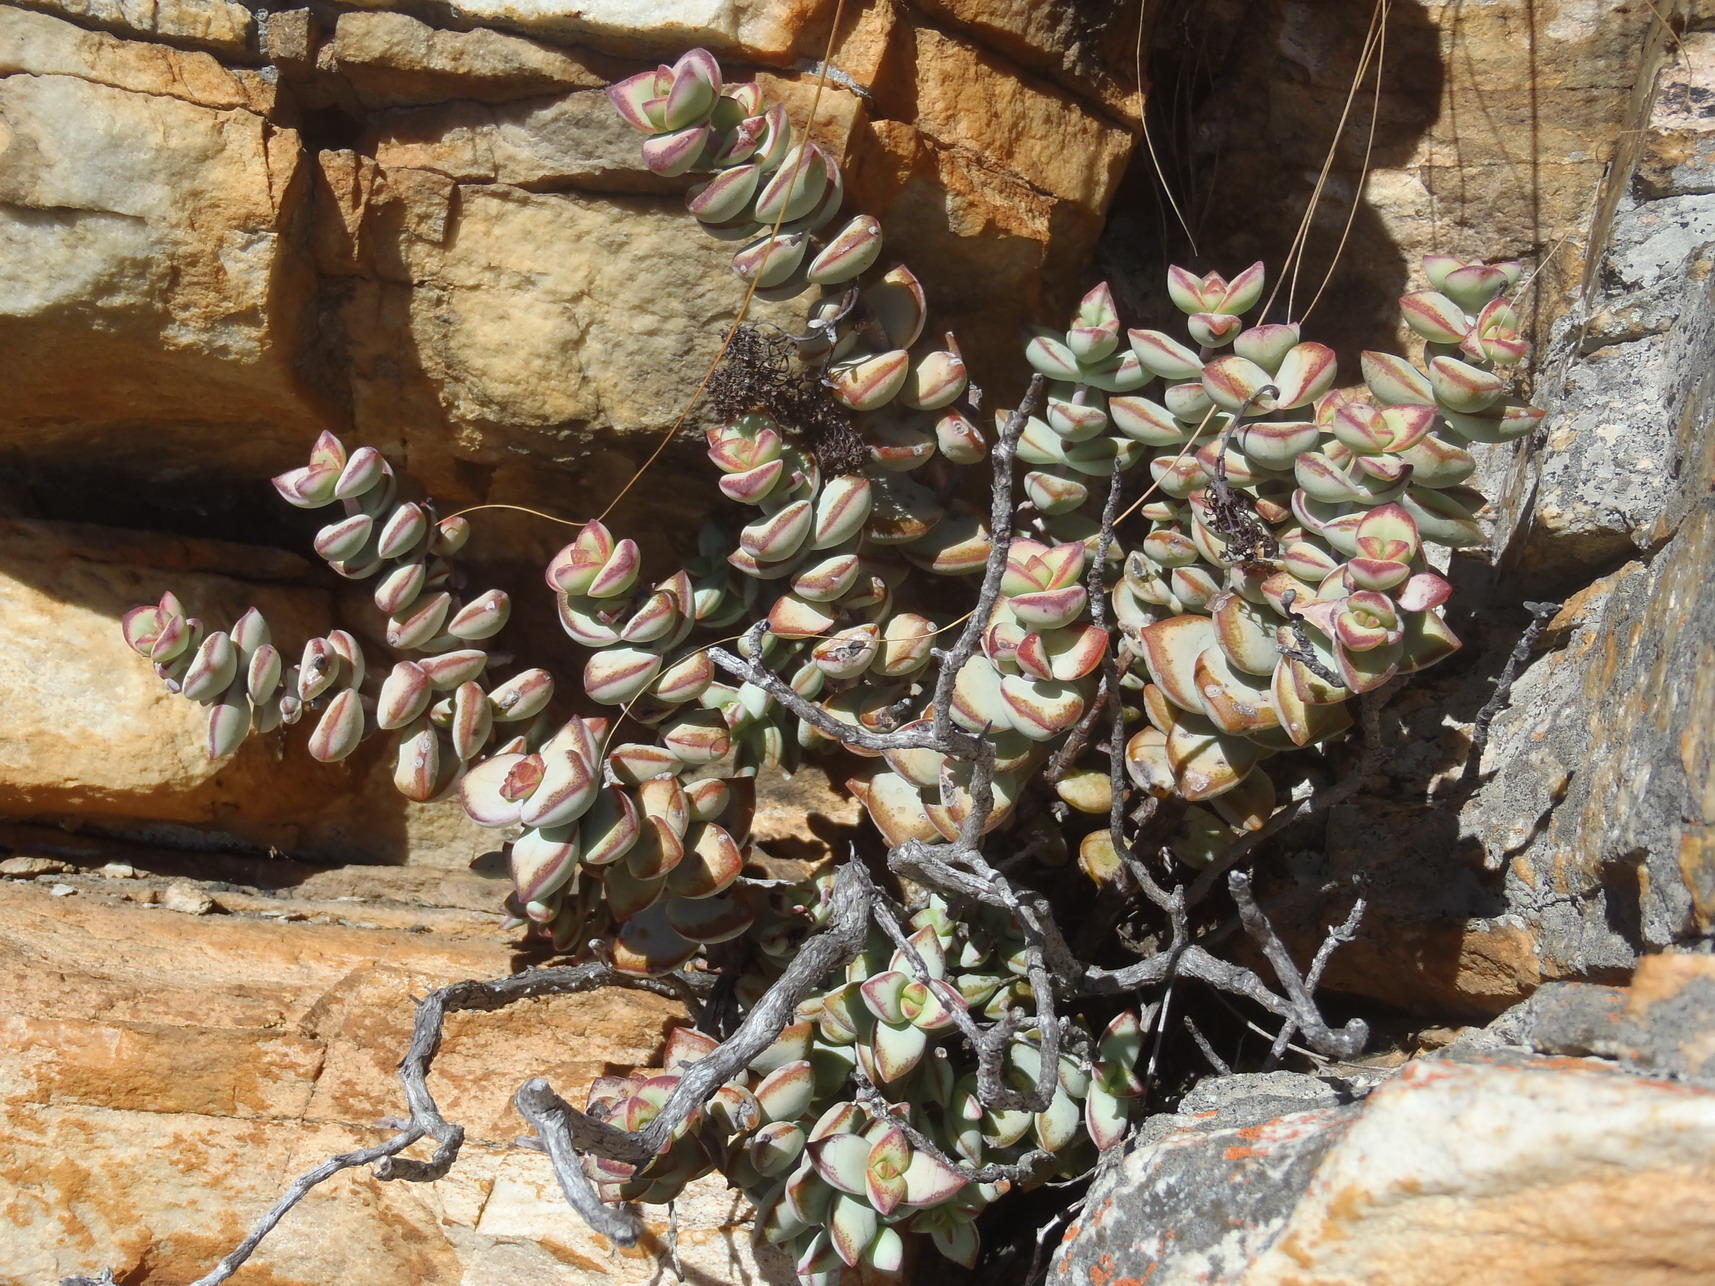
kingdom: Plantae
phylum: Tracheophyta
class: Magnoliopsida
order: Saxifragales
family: Crassulaceae
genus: Crassula
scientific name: Crassula rupestris
